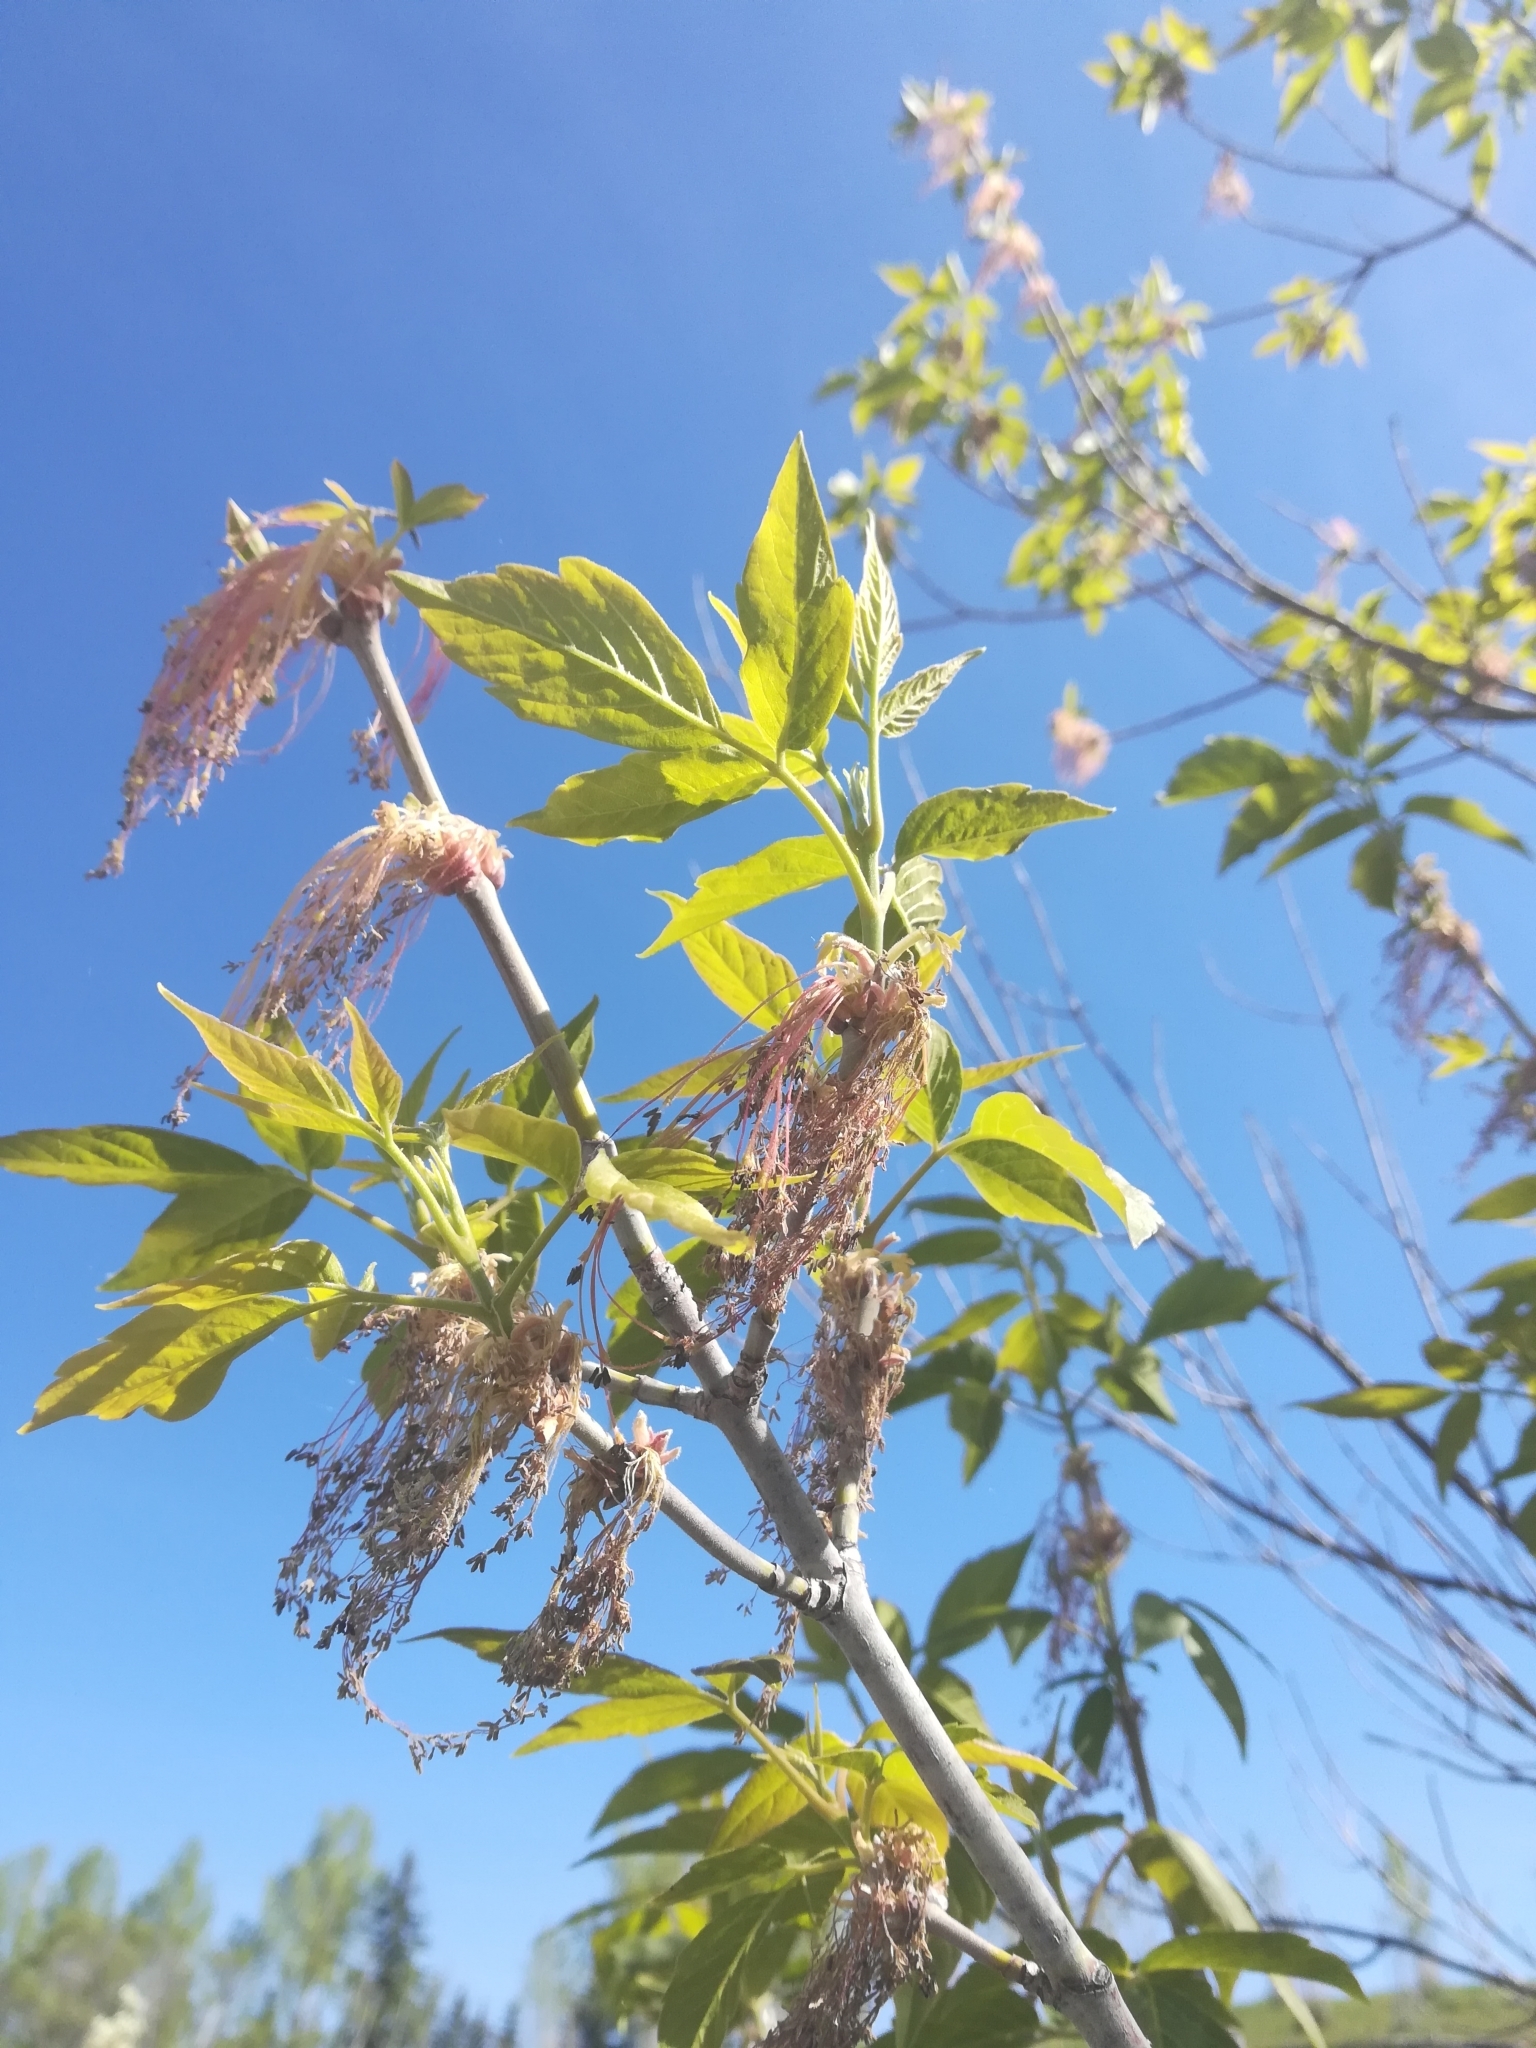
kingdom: Plantae
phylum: Tracheophyta
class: Magnoliopsida
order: Sapindales
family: Sapindaceae
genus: Acer
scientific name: Acer negundo
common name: Ashleaf maple
